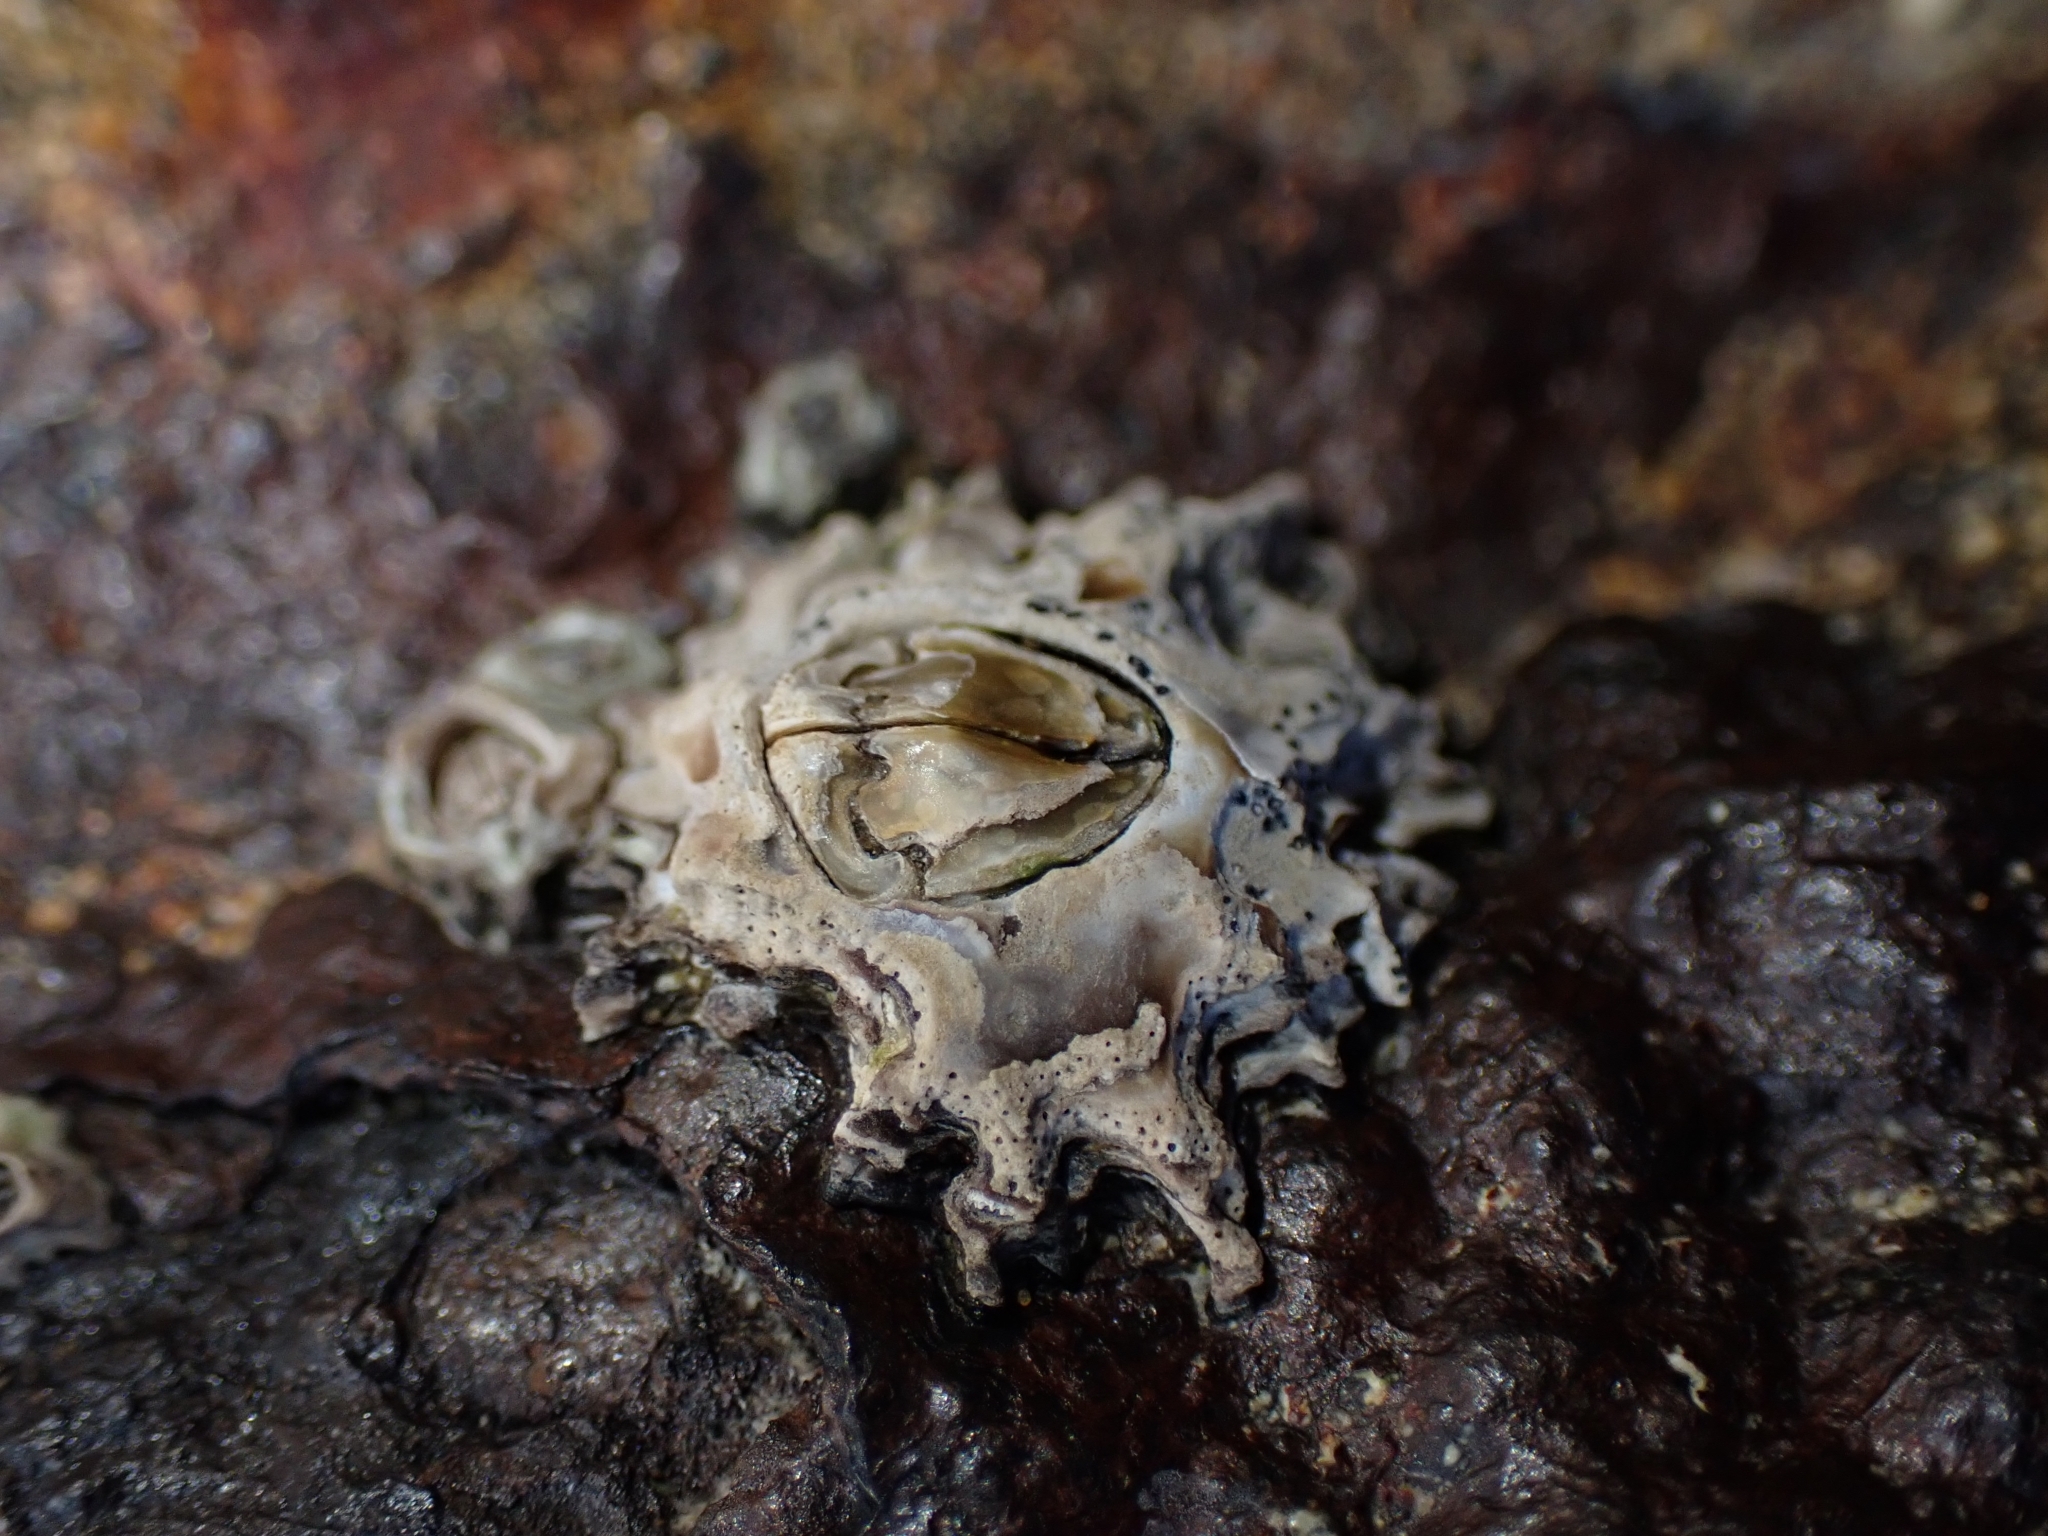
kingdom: Animalia
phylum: Arthropoda
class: Maxillopoda
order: Sessilia
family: Tetraclitidae
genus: Epopella
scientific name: Epopella plicata
